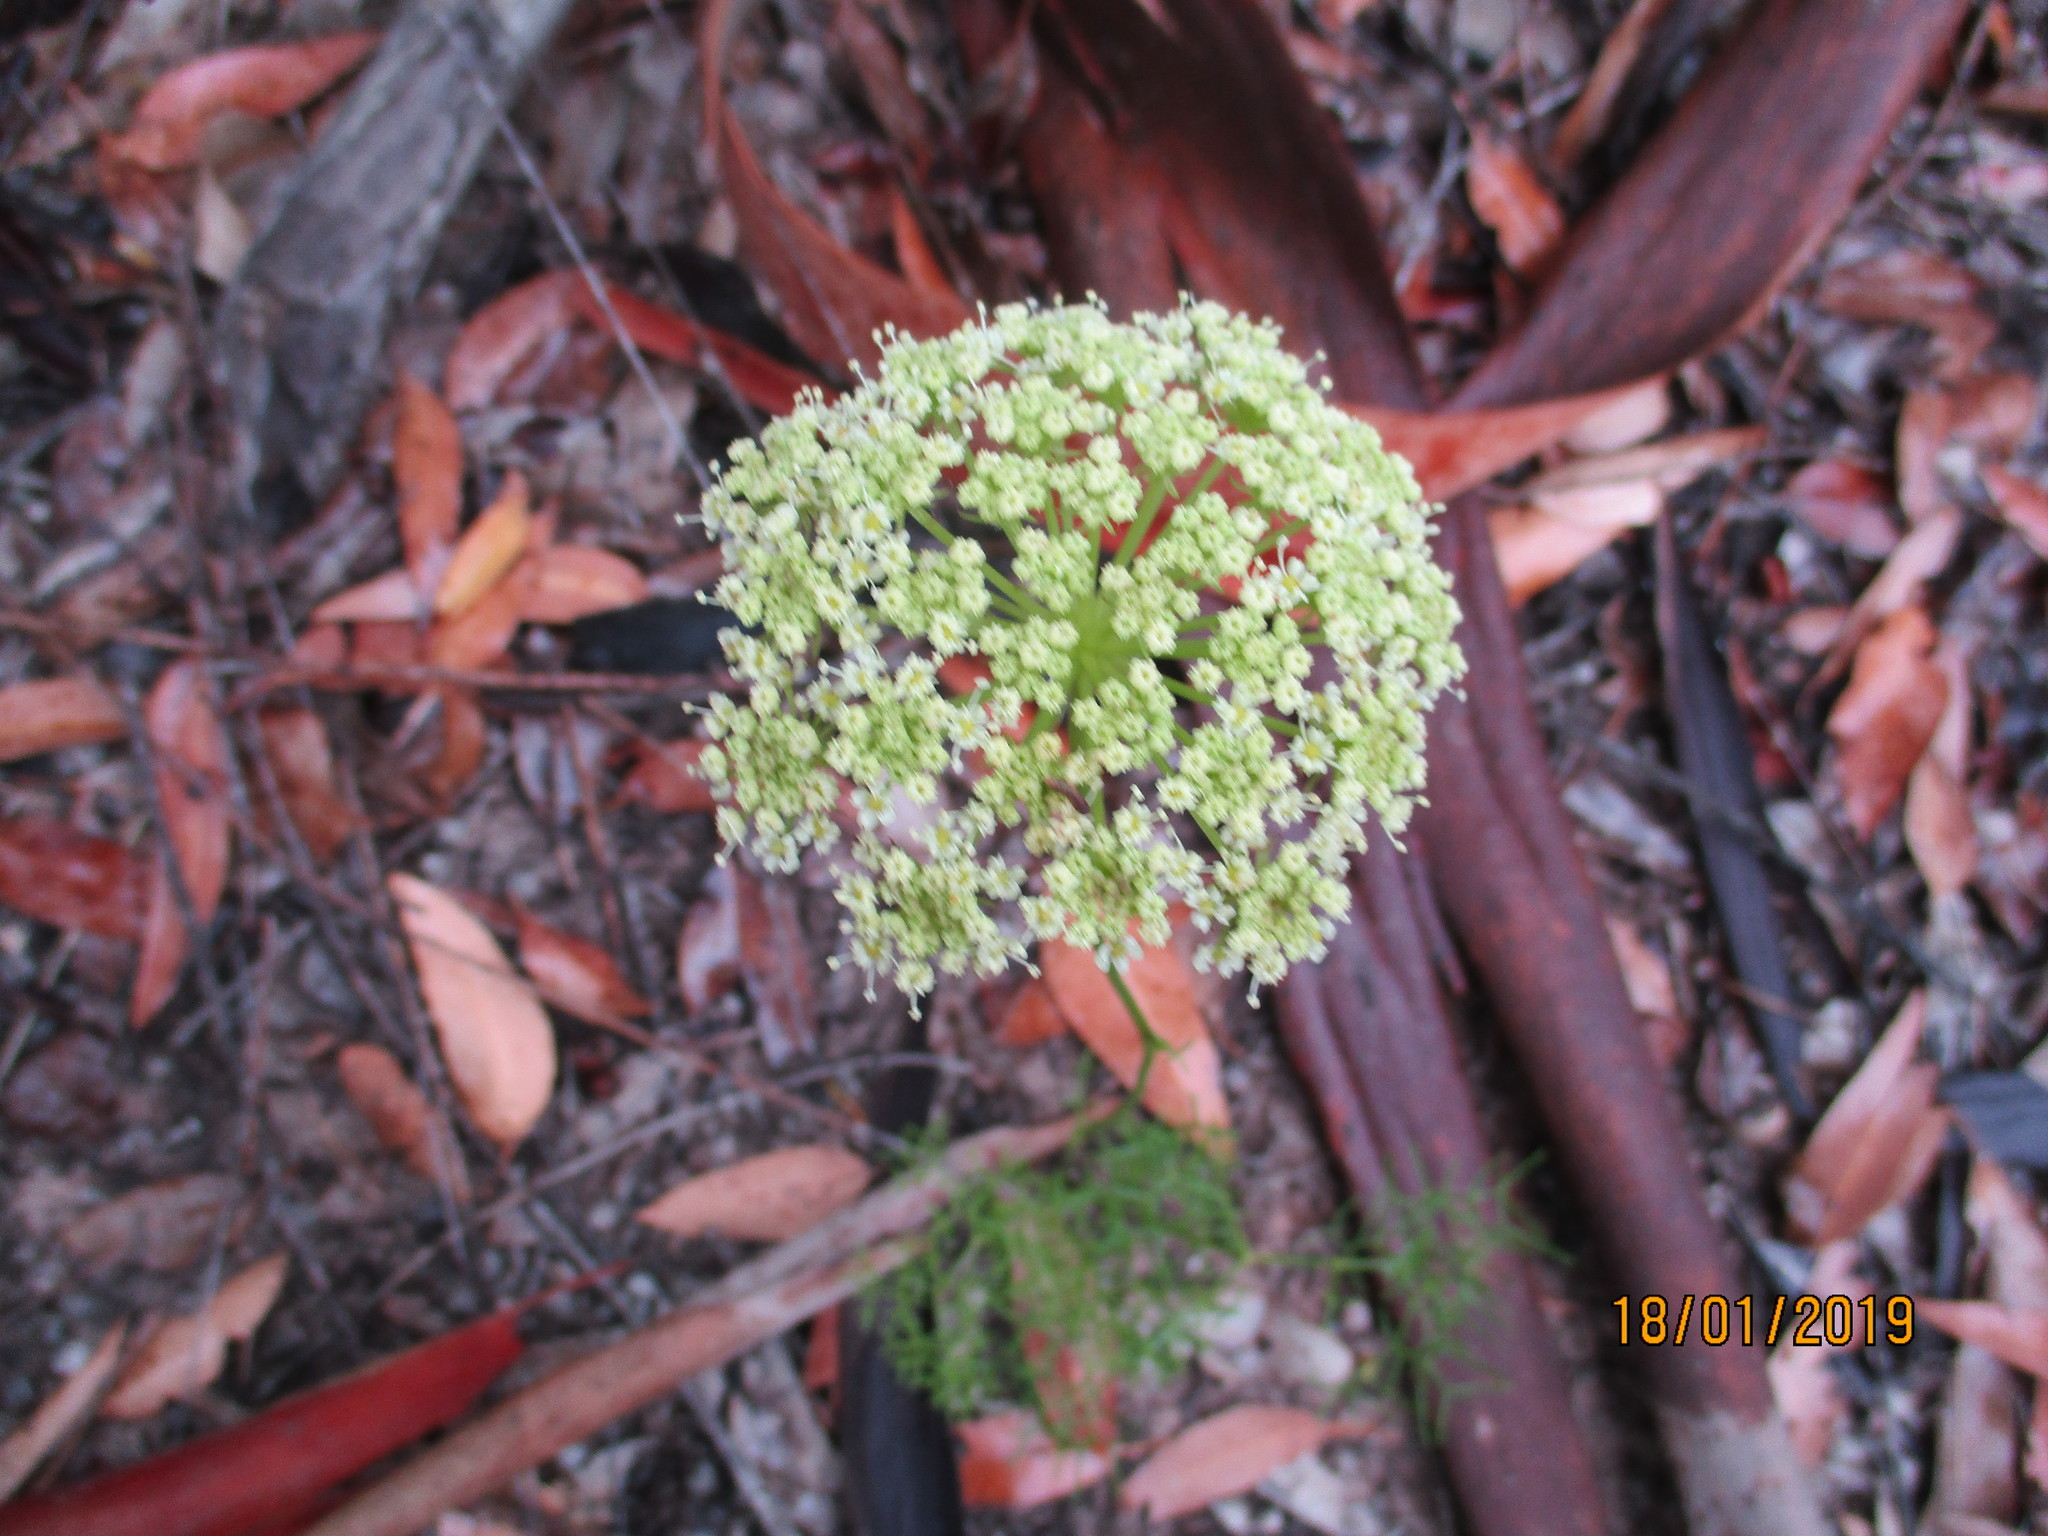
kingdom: Plantae
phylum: Tracheophyta
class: Magnoliopsida
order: Apiales
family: Apiaceae
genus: Nanobubon
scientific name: Nanobubon capillaceum
